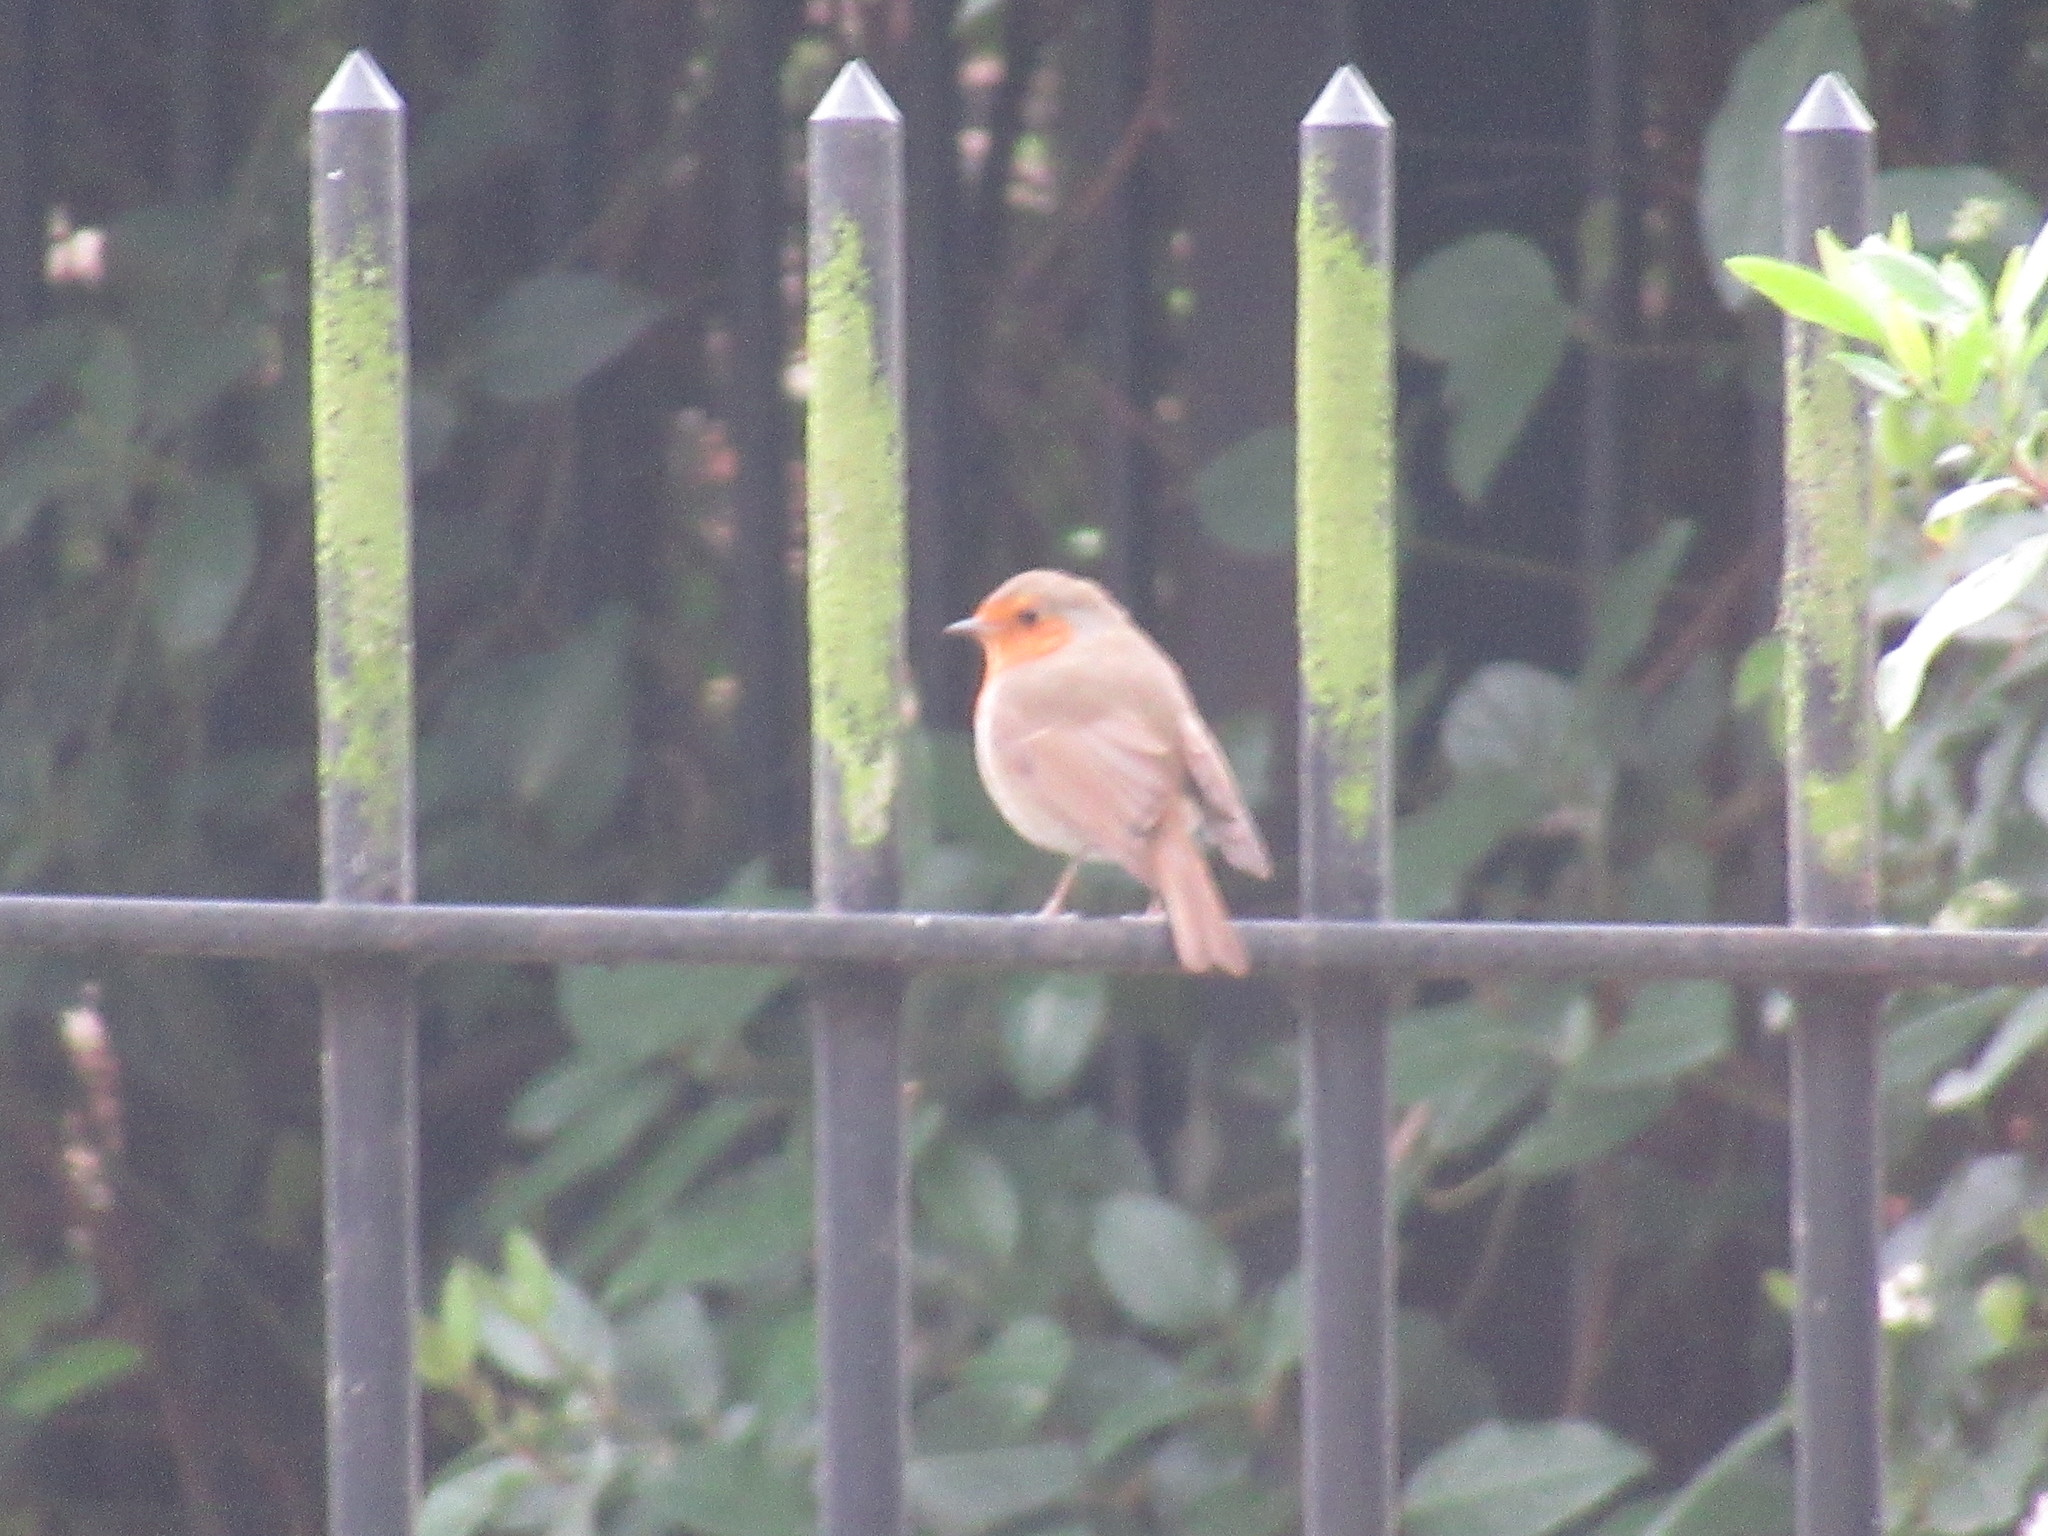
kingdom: Animalia
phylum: Chordata
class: Aves
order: Passeriformes
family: Muscicapidae
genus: Erithacus
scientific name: Erithacus rubecula
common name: European robin
